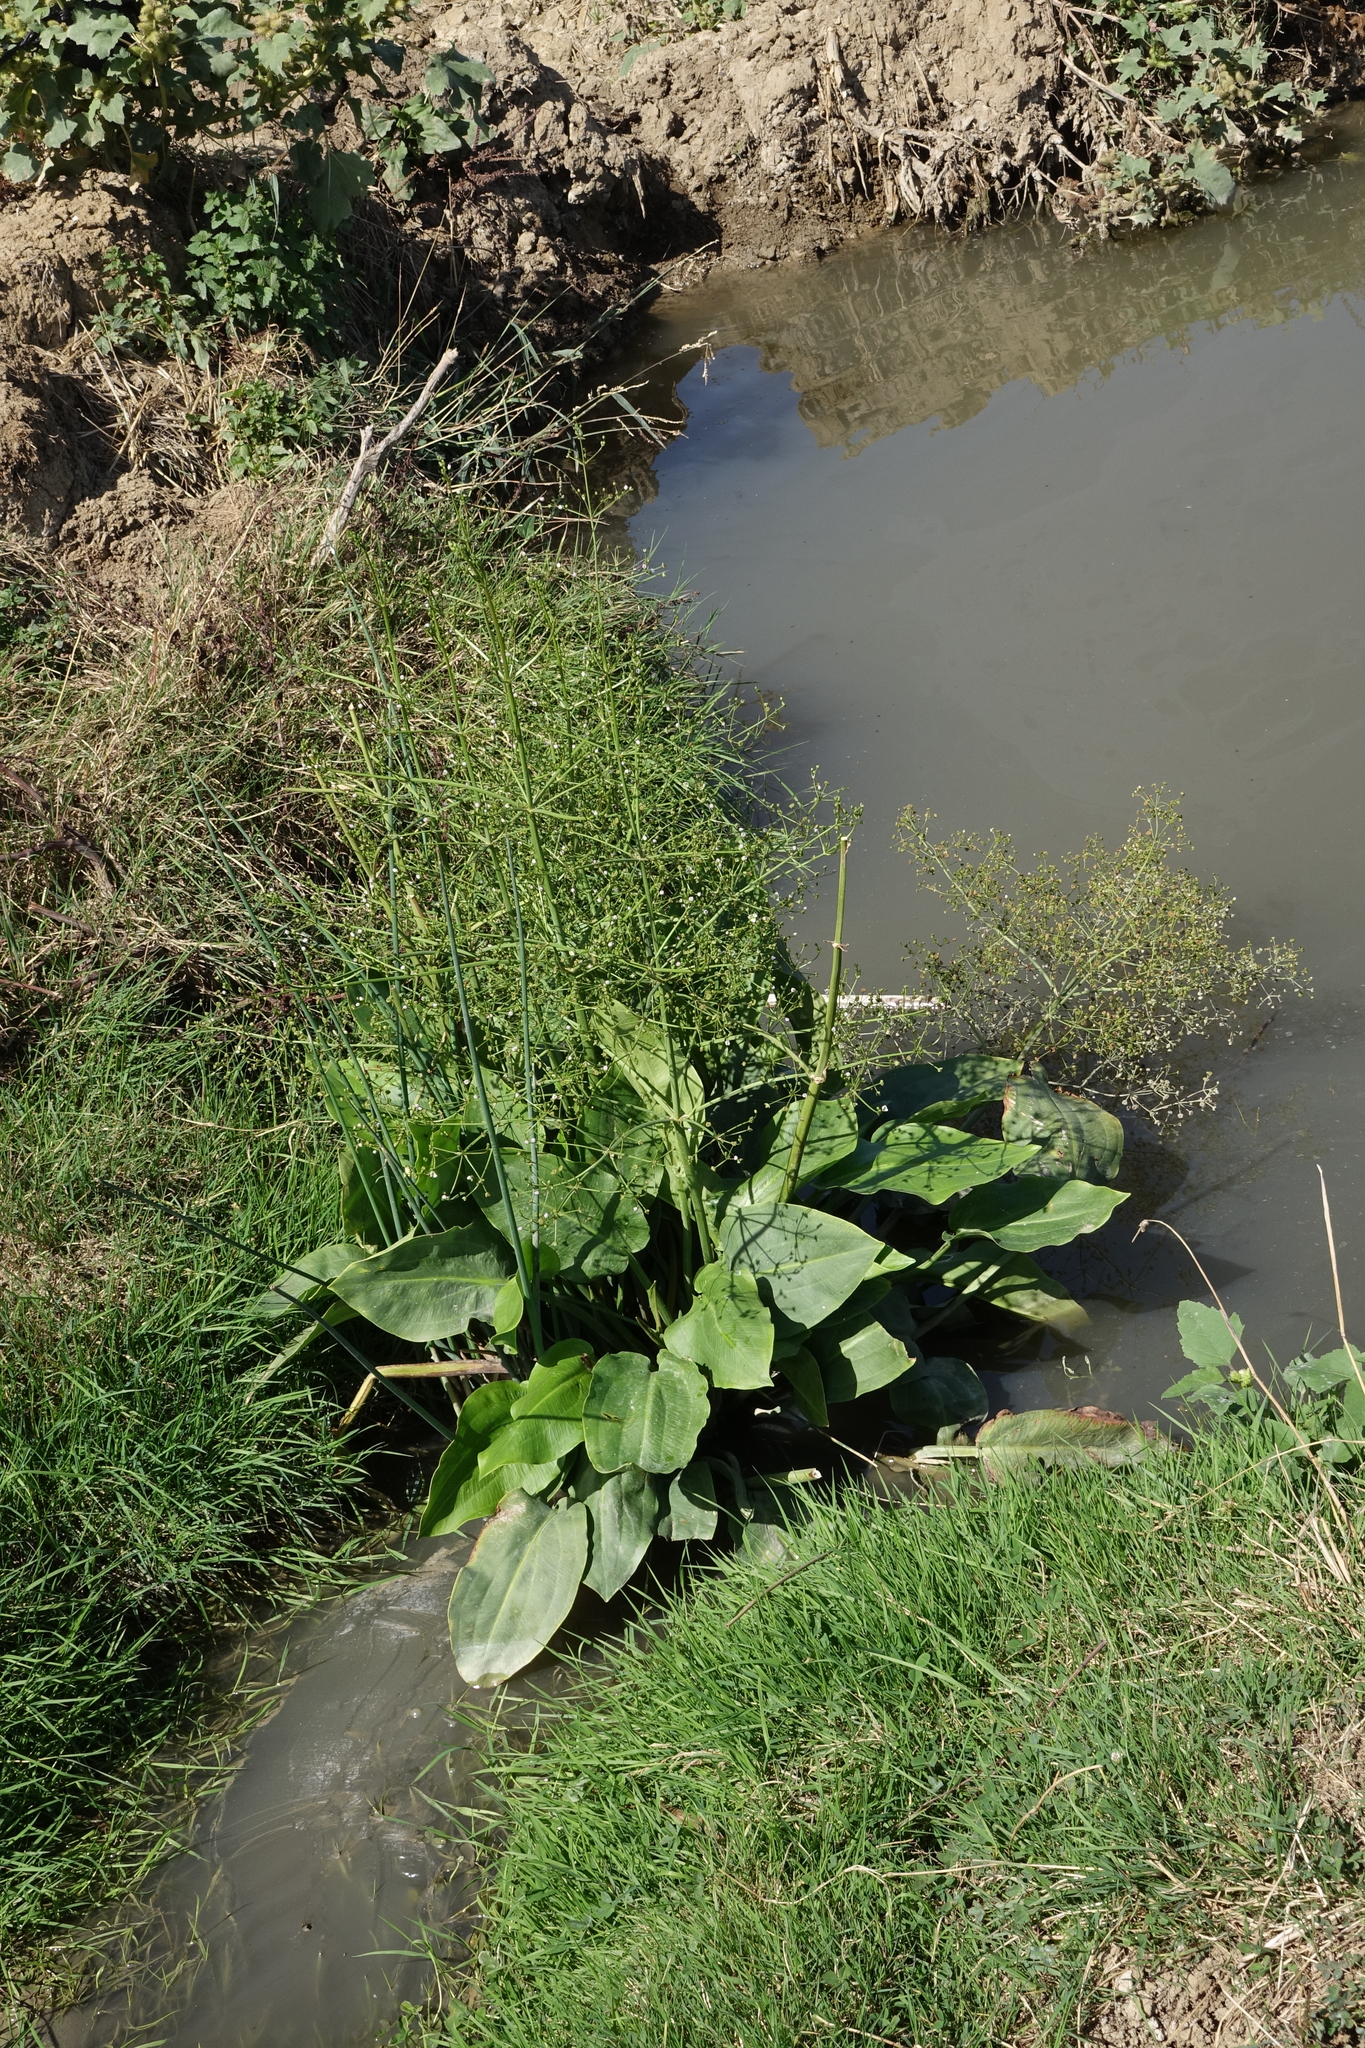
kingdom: Plantae
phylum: Tracheophyta
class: Liliopsida
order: Alismatales
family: Alismataceae
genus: Alisma
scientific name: Alisma plantago-aquatica
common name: Water-plantain
